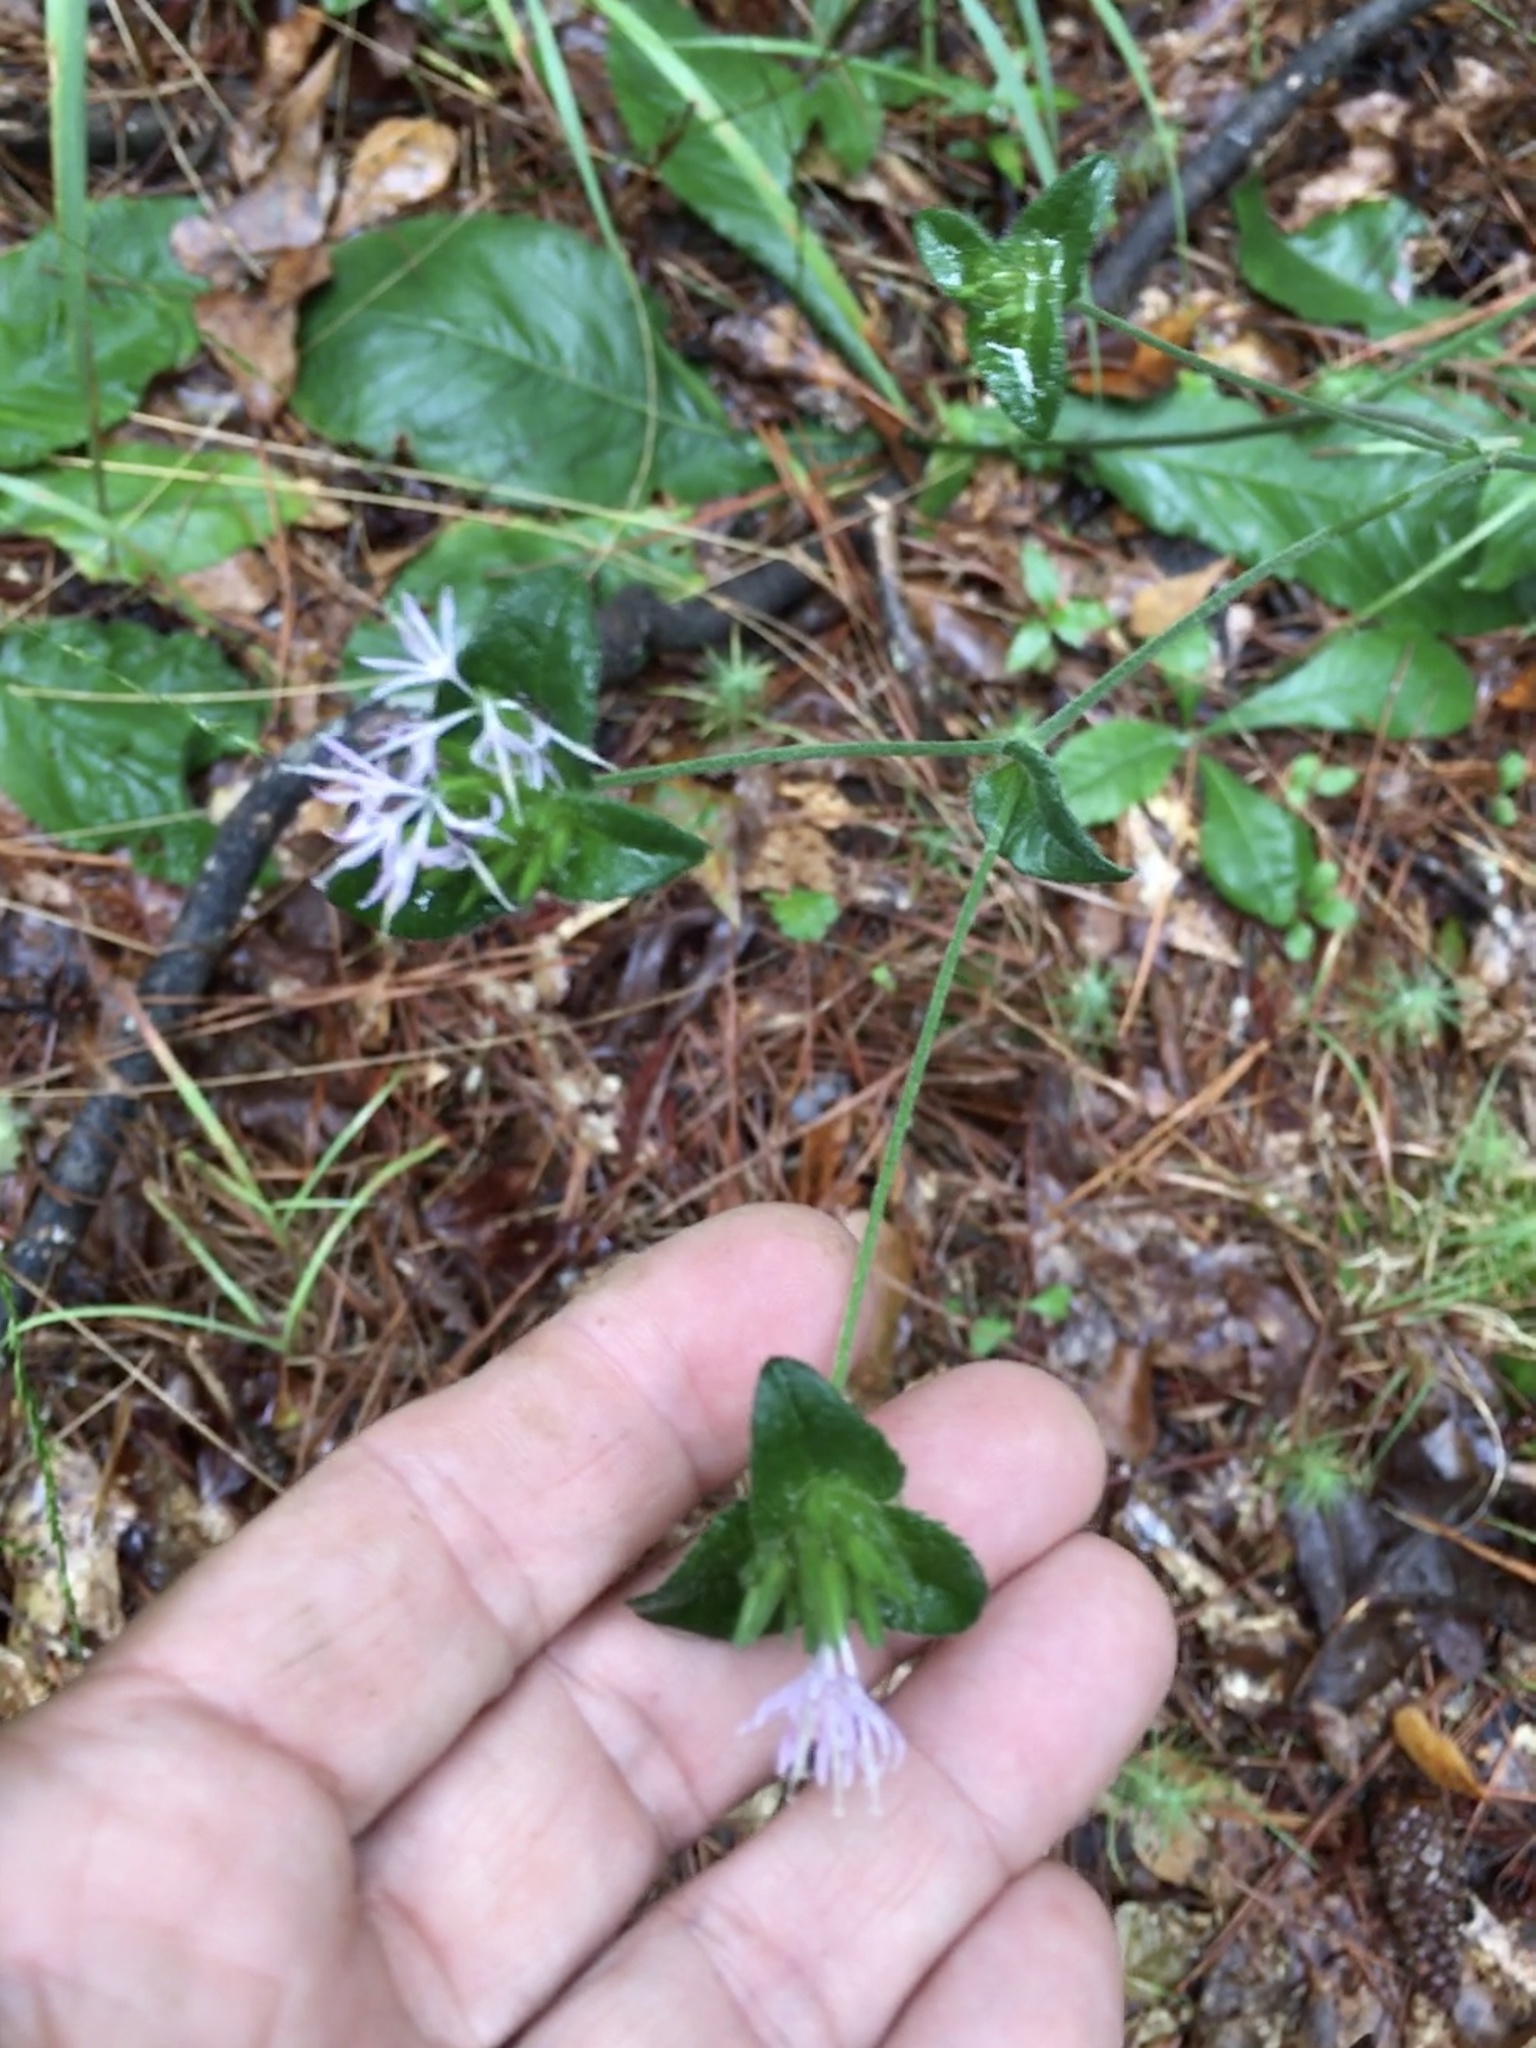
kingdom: Plantae
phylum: Tracheophyta
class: Magnoliopsida
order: Asterales
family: Asteraceae
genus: Elephantopus
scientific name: Elephantopus tomentosus
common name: Tobacco-weed
